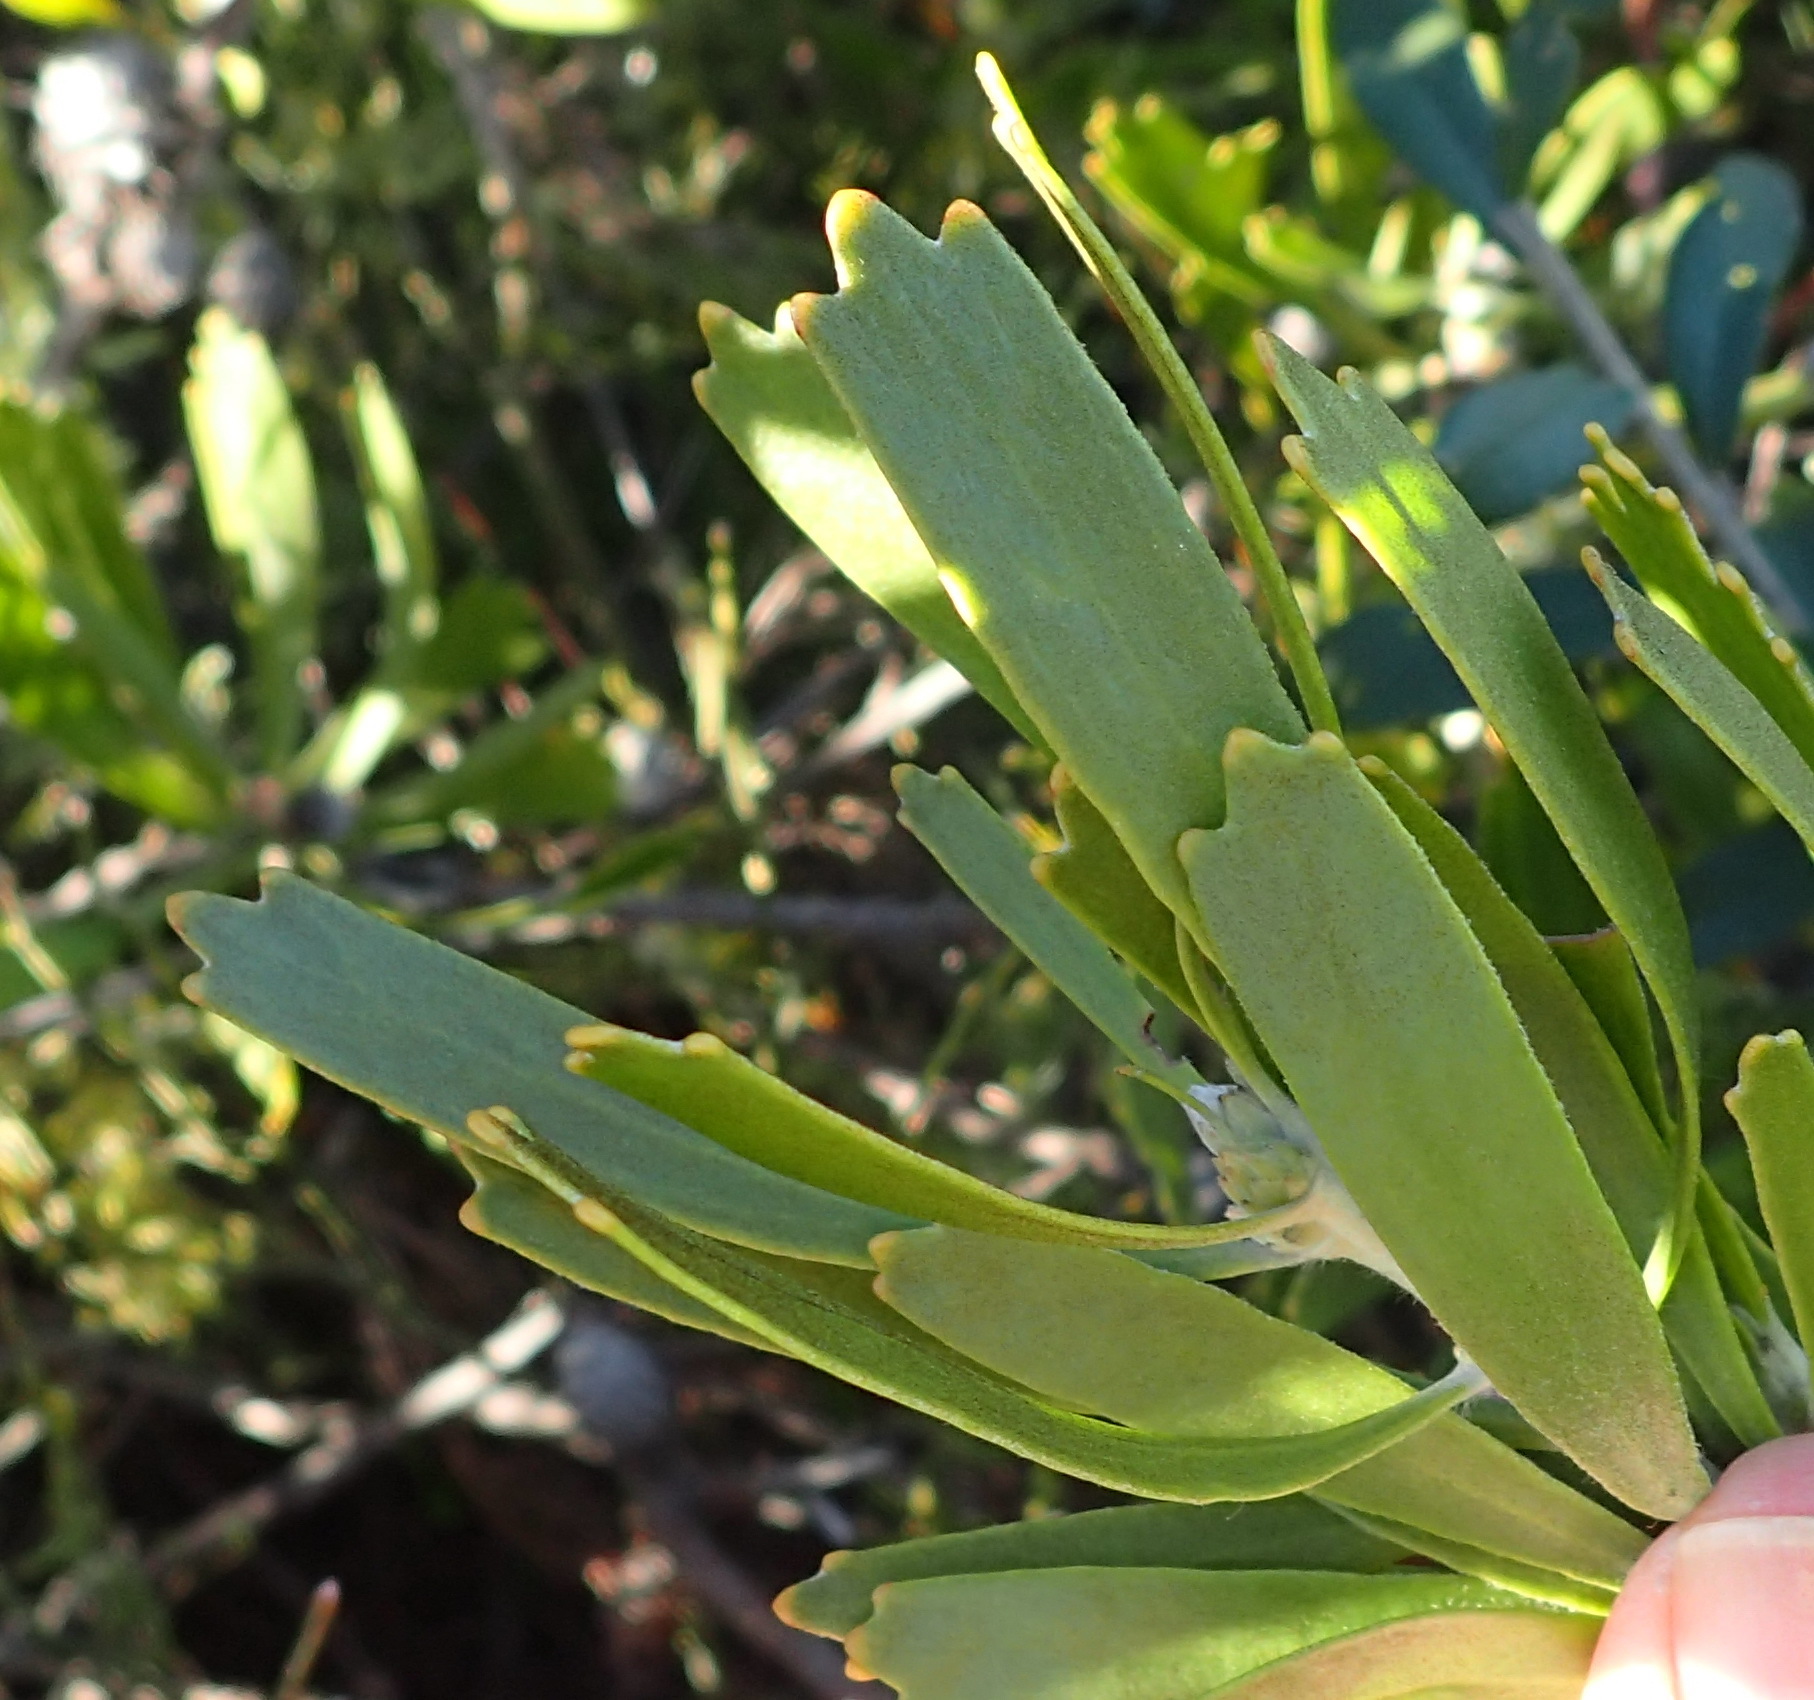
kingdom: Plantae
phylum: Tracheophyta
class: Magnoliopsida
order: Proteales
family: Proteaceae
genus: Leucospermum
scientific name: Leucospermum cuneiforme
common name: Common pincushion
